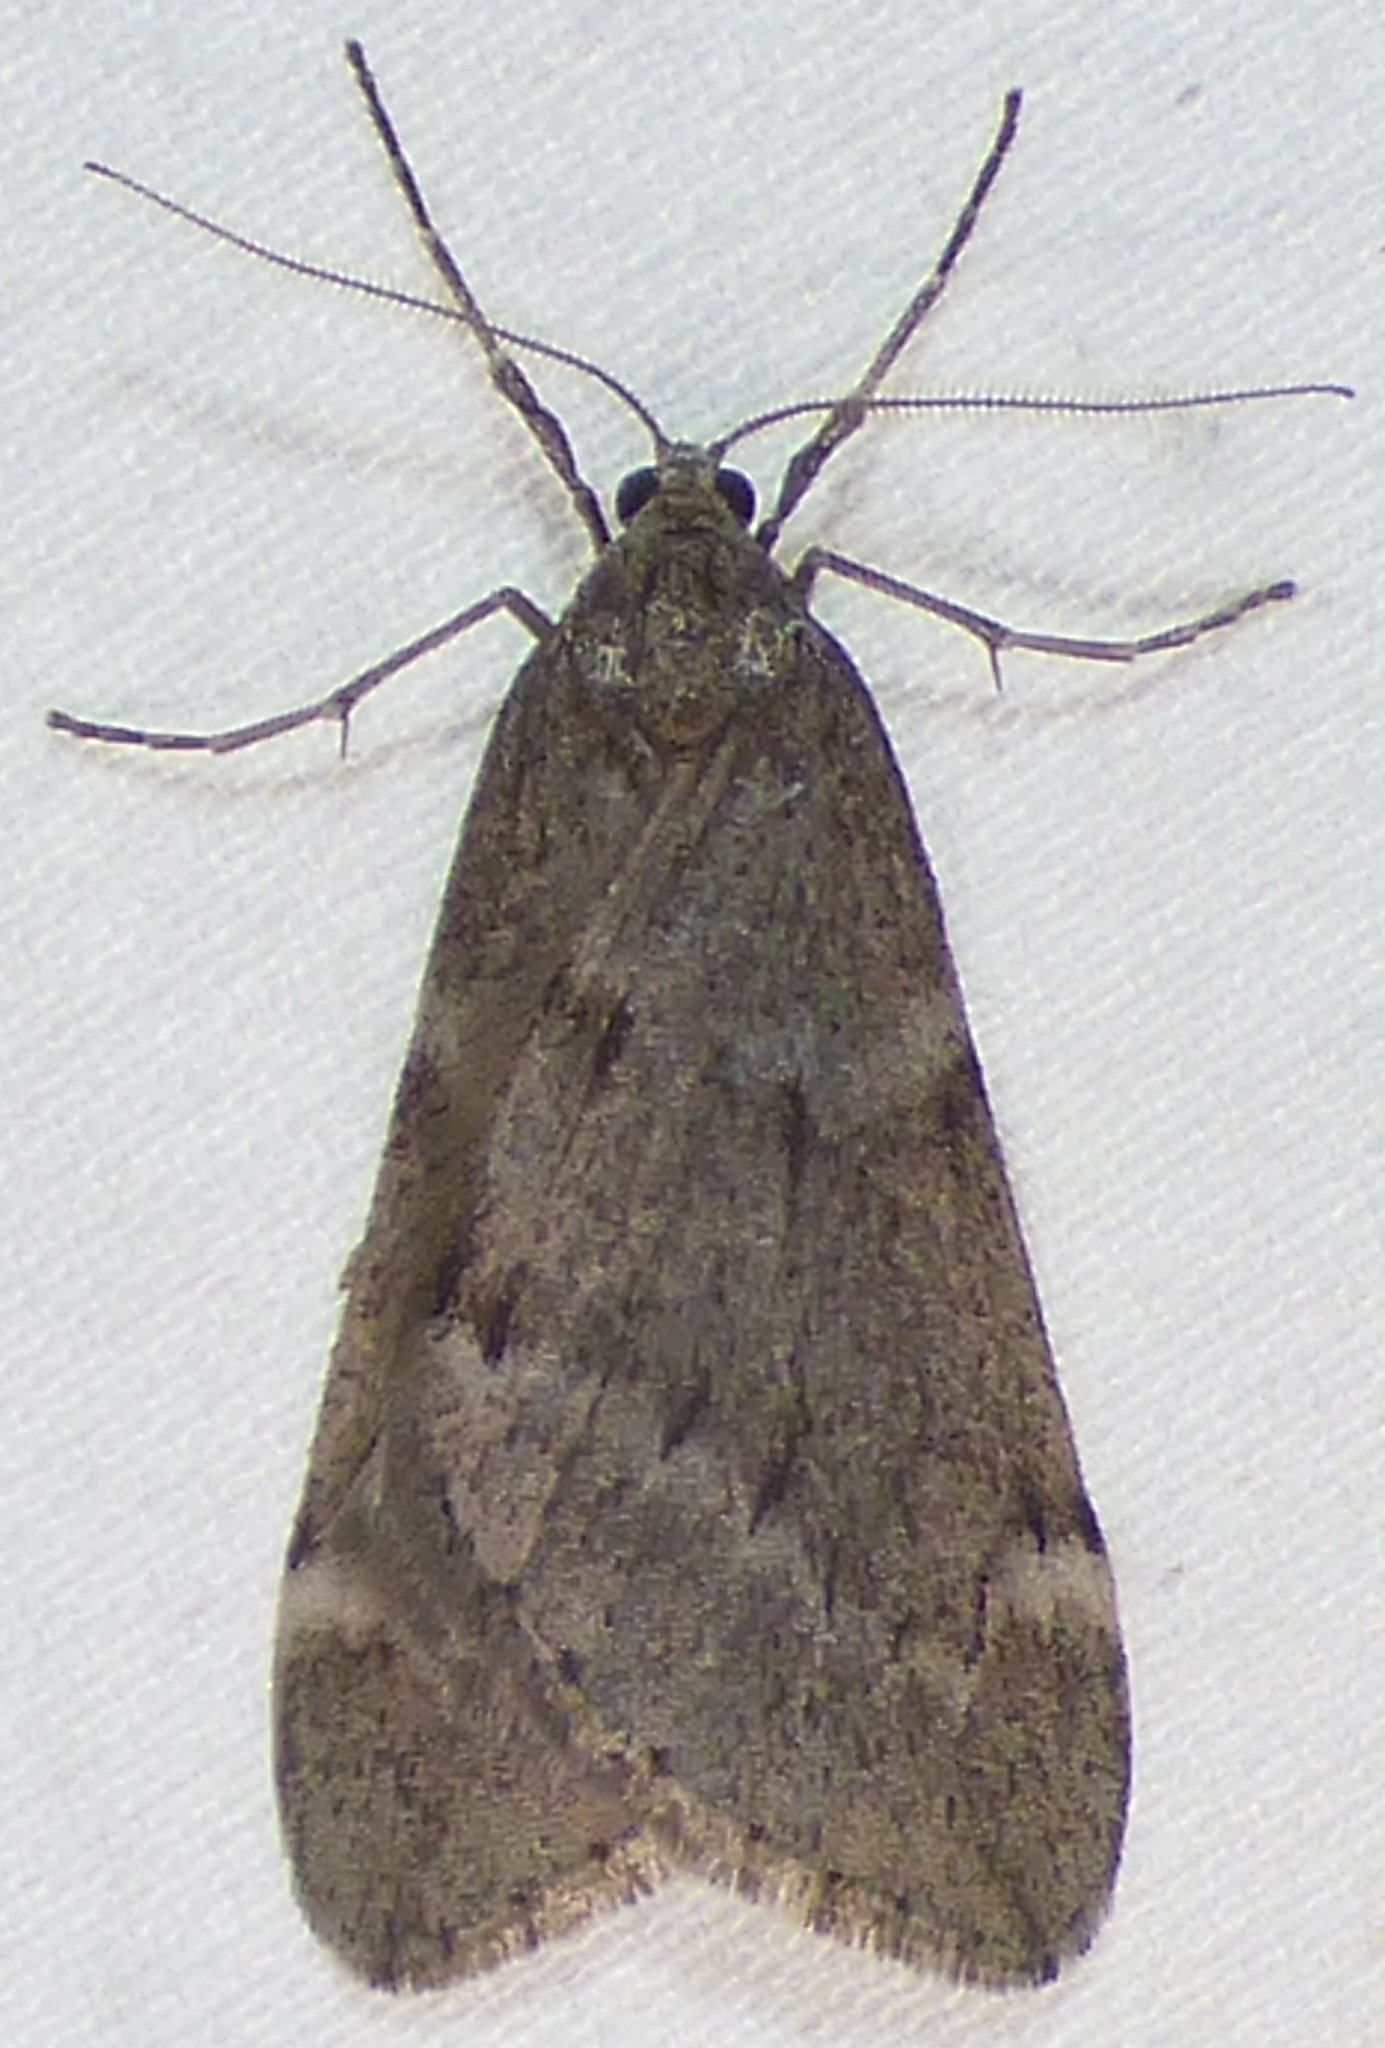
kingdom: Animalia
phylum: Arthropoda
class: Insecta
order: Lepidoptera
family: Geometridae
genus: Alsophila
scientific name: Alsophila pometaria
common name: Fall cankerworm
